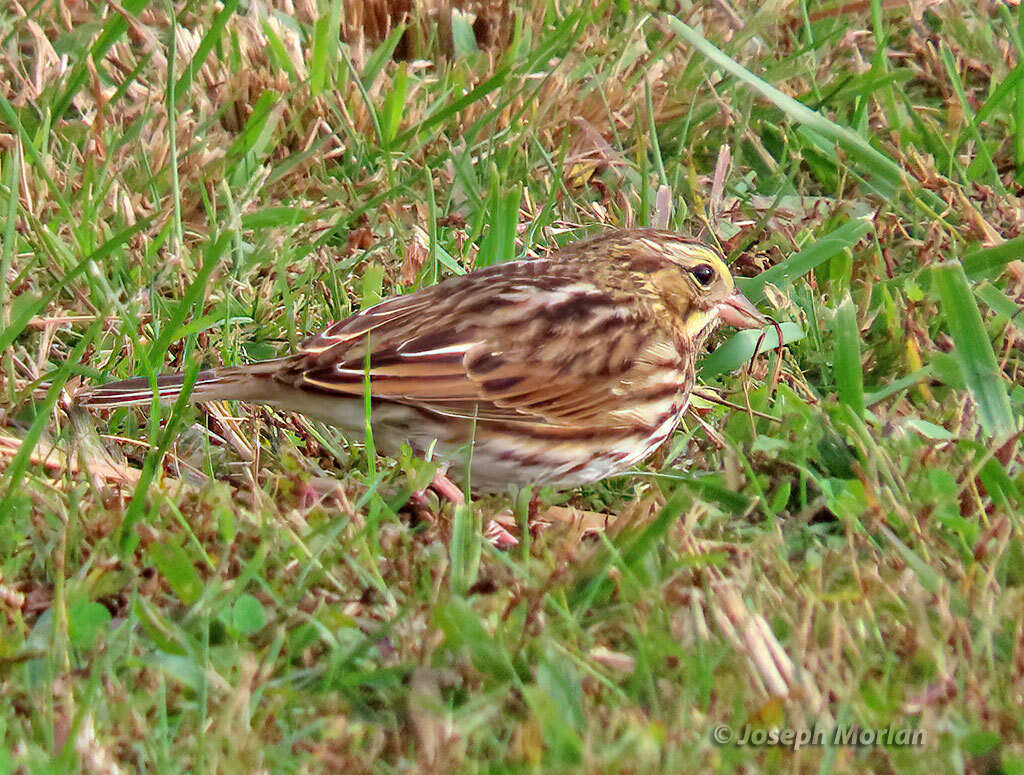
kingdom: Animalia
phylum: Chordata
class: Aves
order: Passeriformes
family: Passerellidae
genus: Passerculus
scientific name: Passerculus sandwichensis
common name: Savannah sparrow
